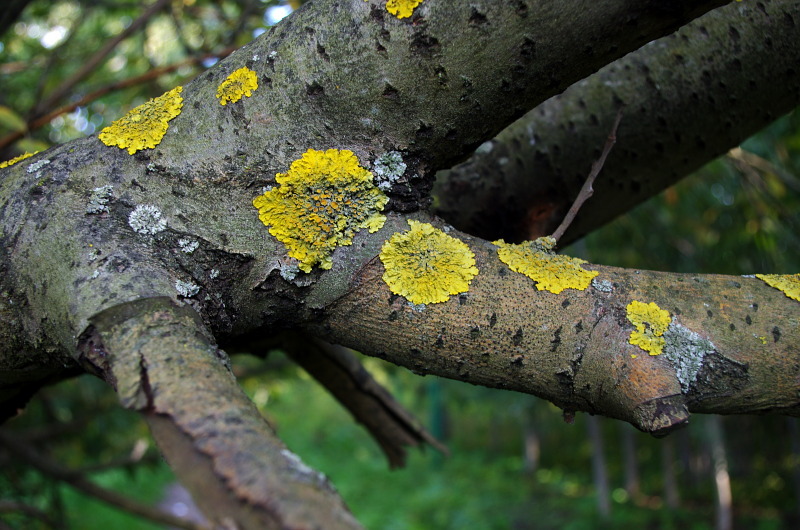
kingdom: Fungi
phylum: Ascomycota
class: Lecanoromycetes
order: Teloschistales
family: Teloschistaceae
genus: Xanthoria
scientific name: Xanthoria parietina
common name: Common orange lichen
